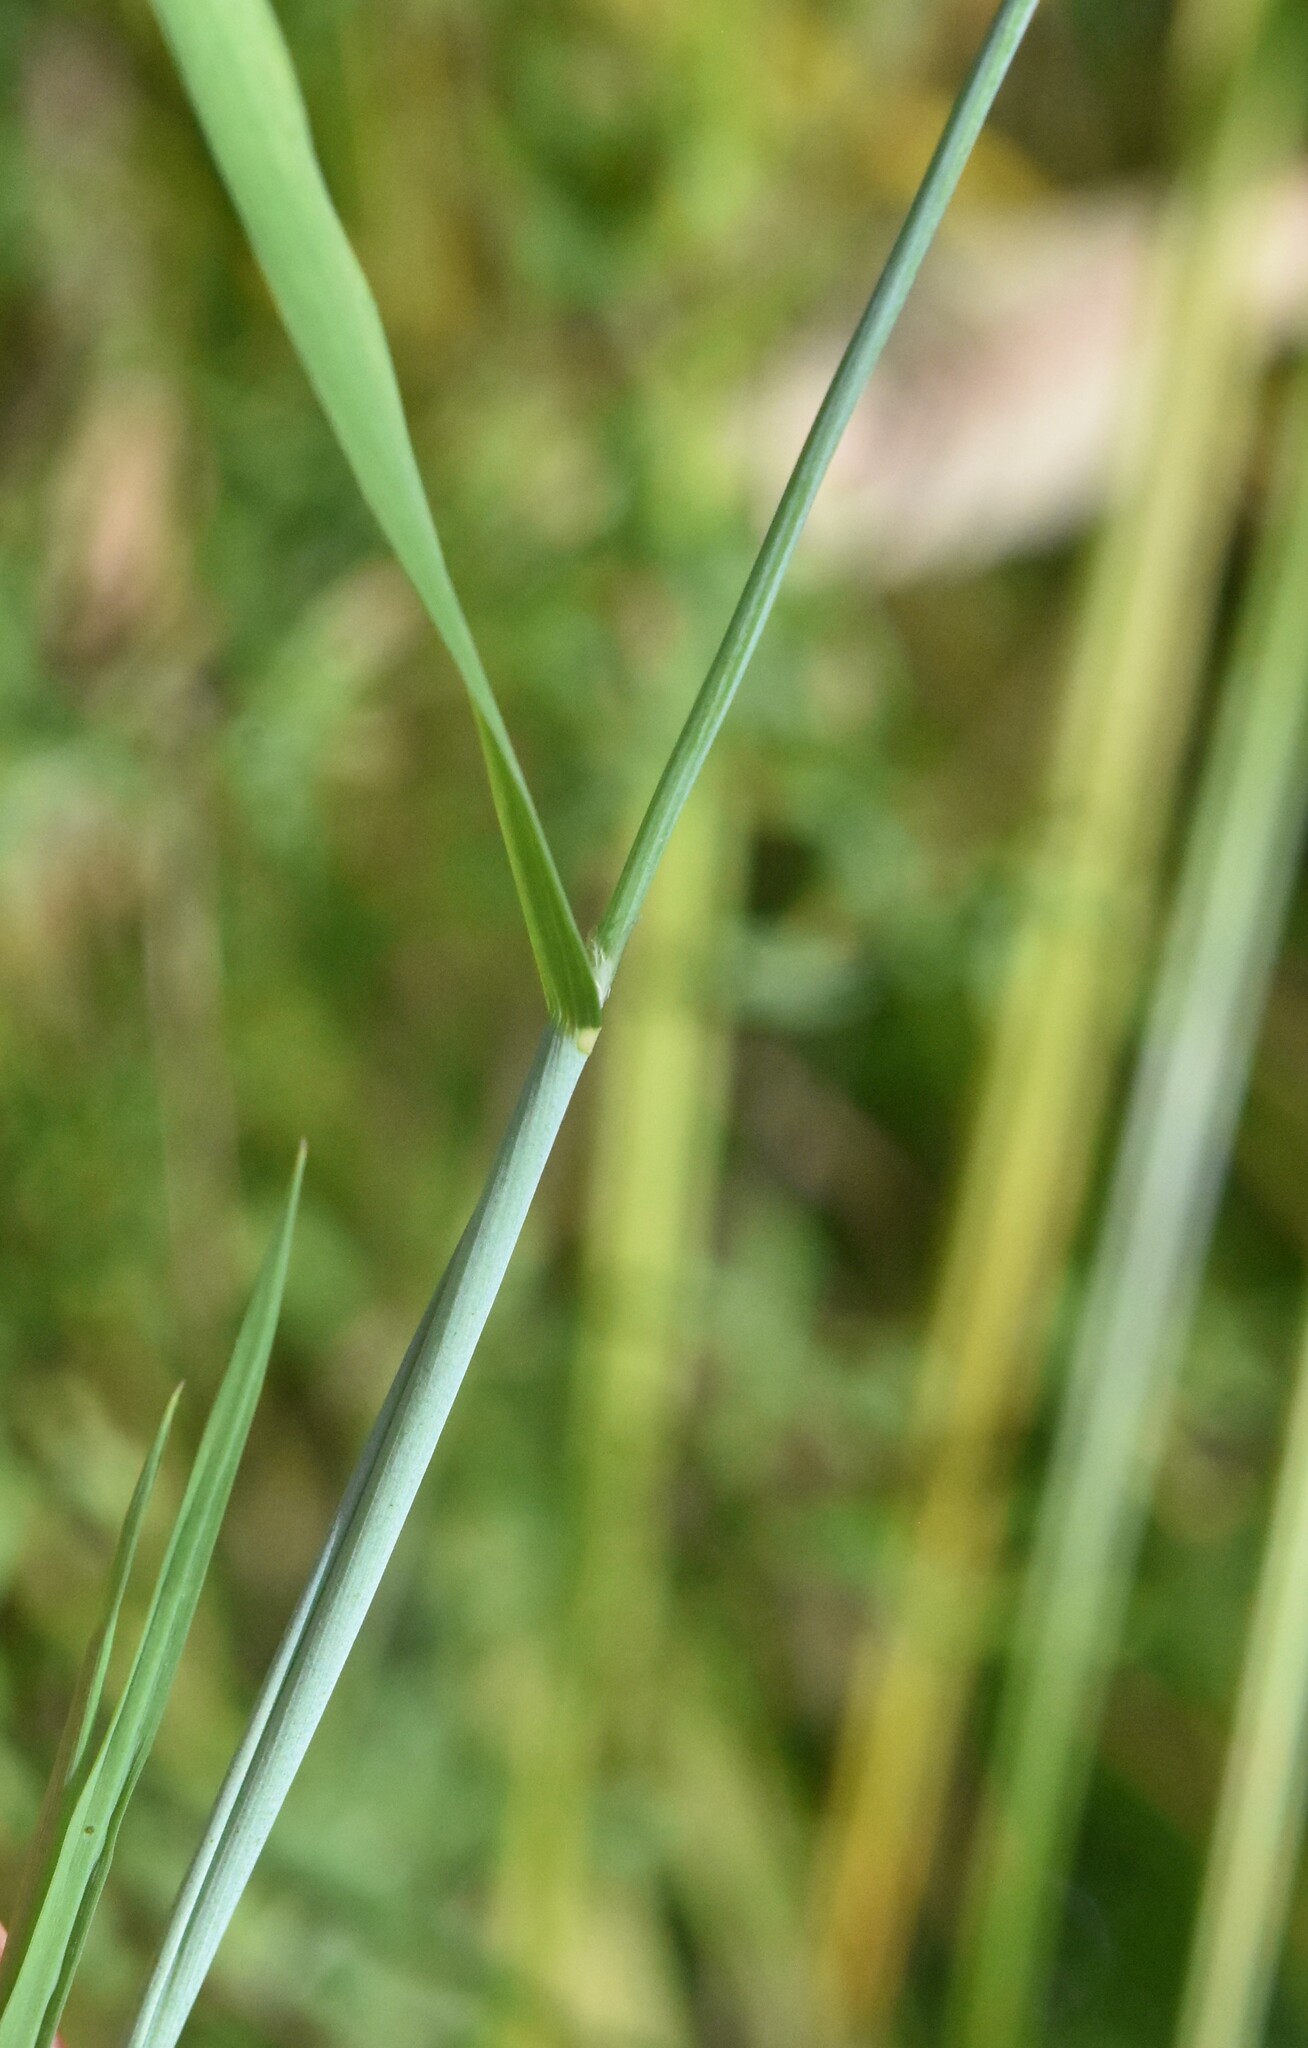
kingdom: Plantae
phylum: Tracheophyta
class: Liliopsida
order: Poales
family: Poaceae
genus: Alopecurus
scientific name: Alopecurus aequalis
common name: Orange foxtail
